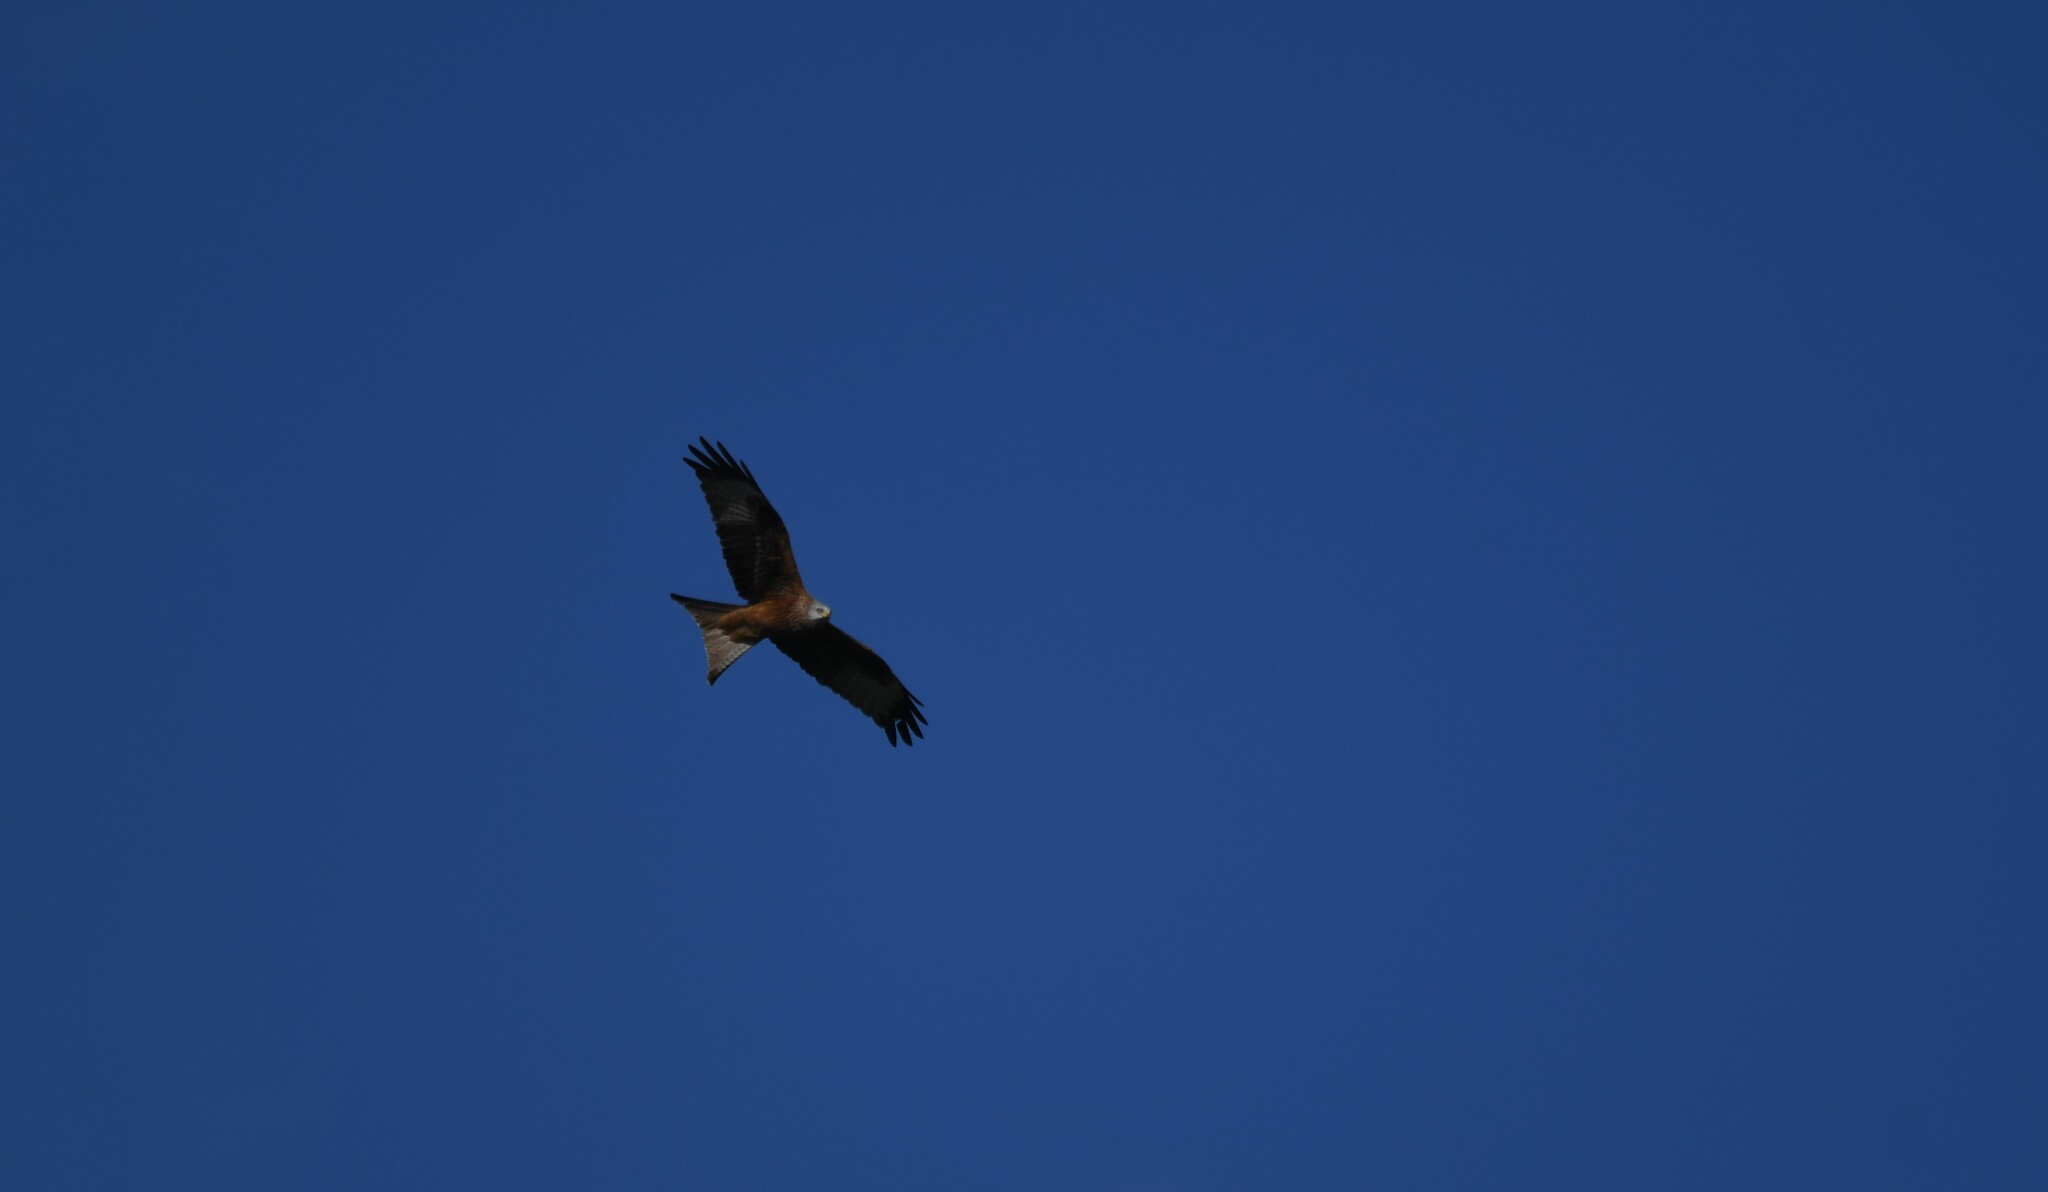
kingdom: Animalia
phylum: Chordata
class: Aves
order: Accipitriformes
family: Accipitridae
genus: Milvus
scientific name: Milvus milvus
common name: Red kite
